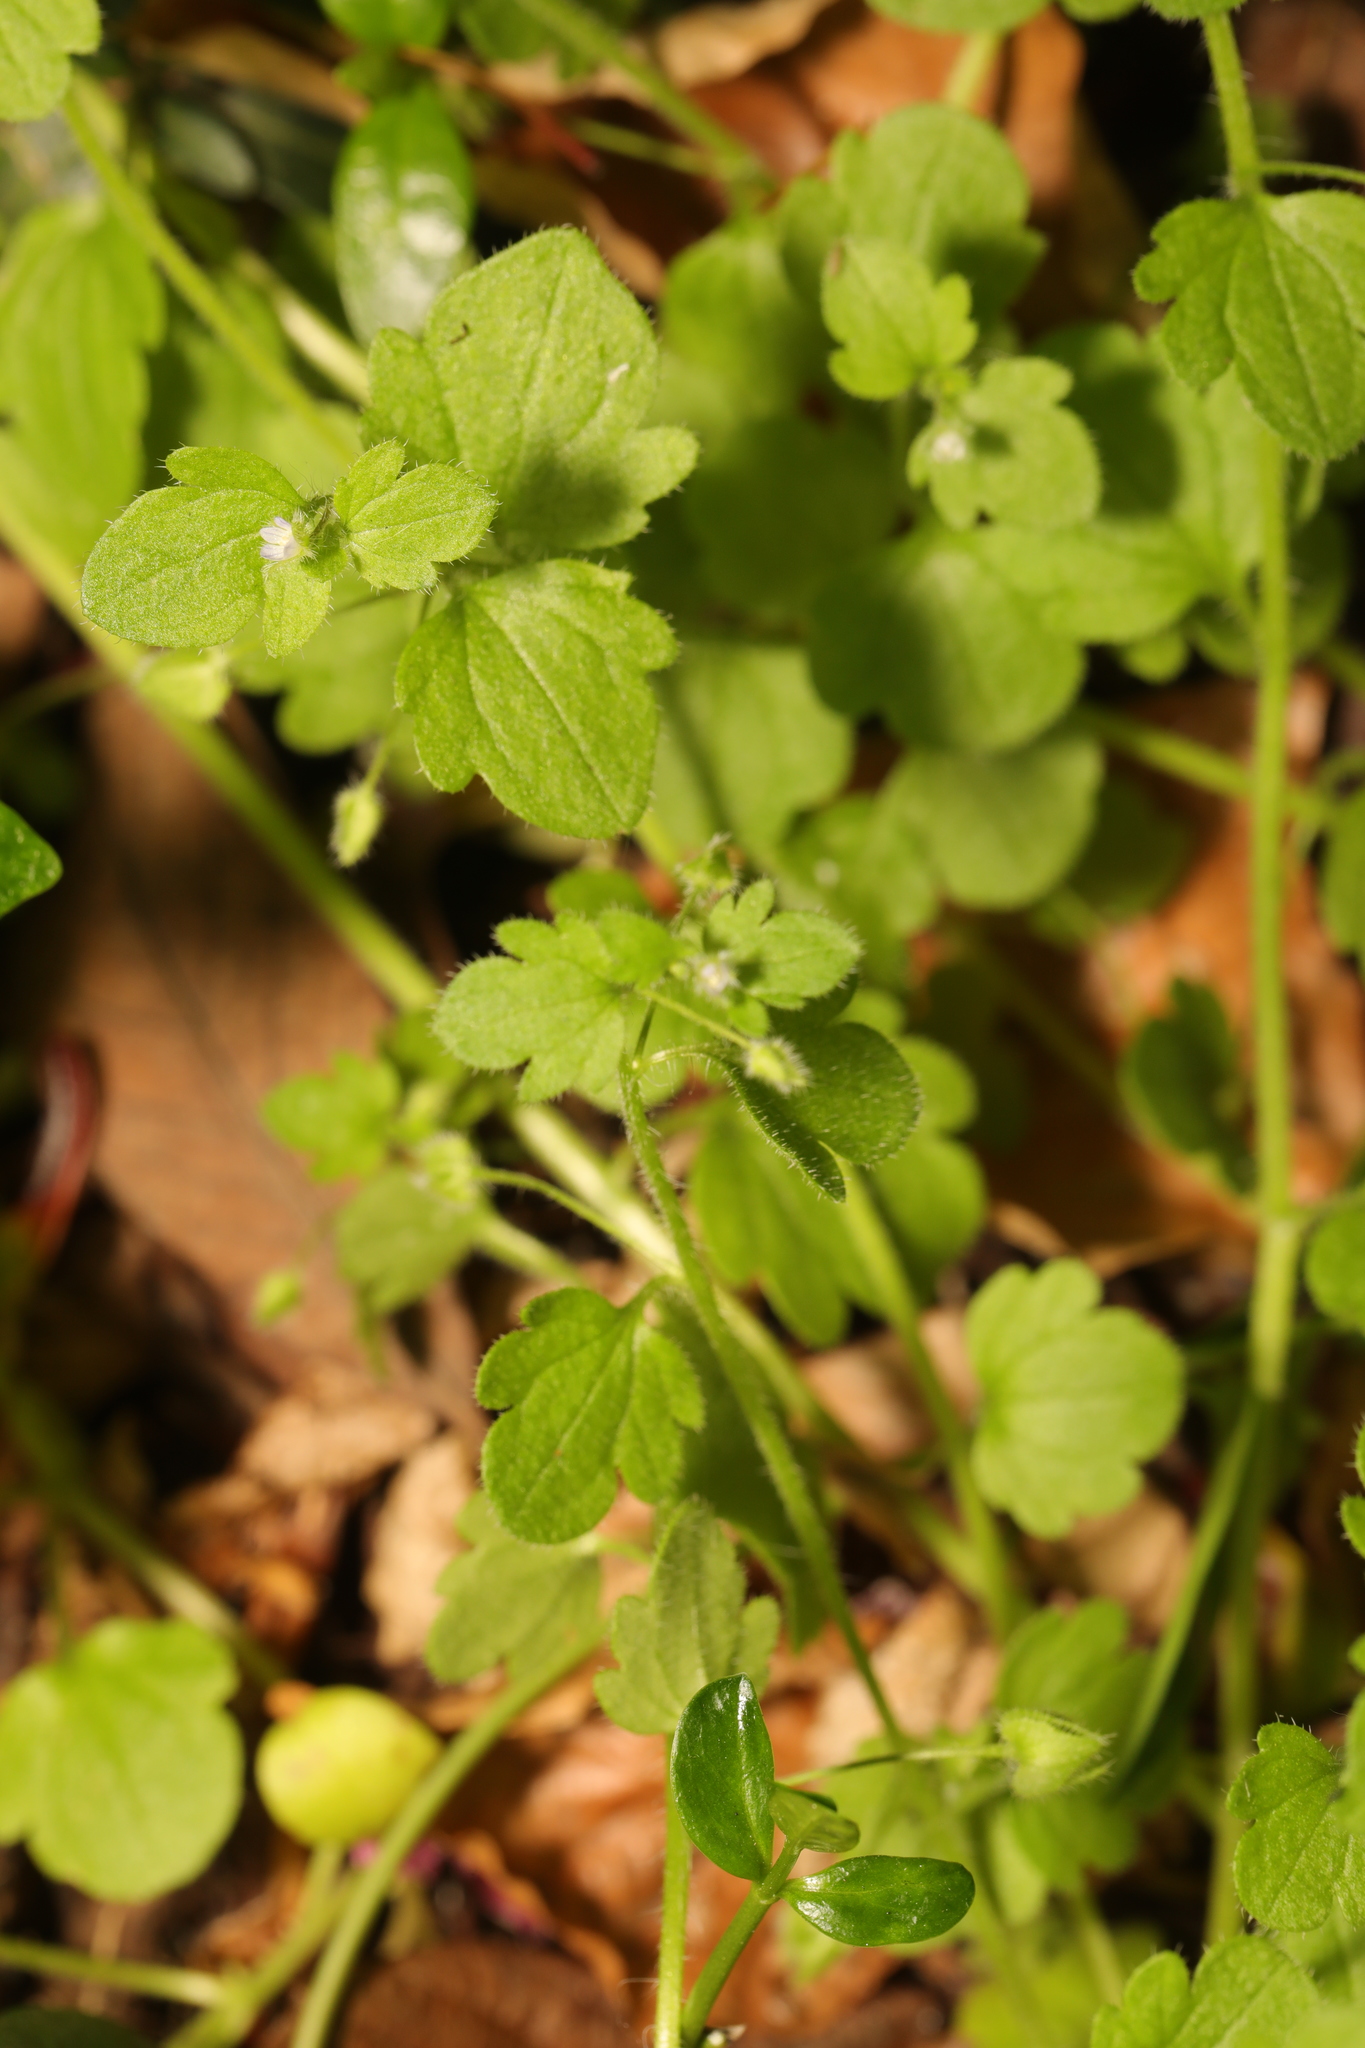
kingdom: Plantae
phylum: Tracheophyta
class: Magnoliopsida
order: Lamiales
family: Plantaginaceae
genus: Veronica
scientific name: Veronica sublobata
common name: False ivy-leaved speedwell
